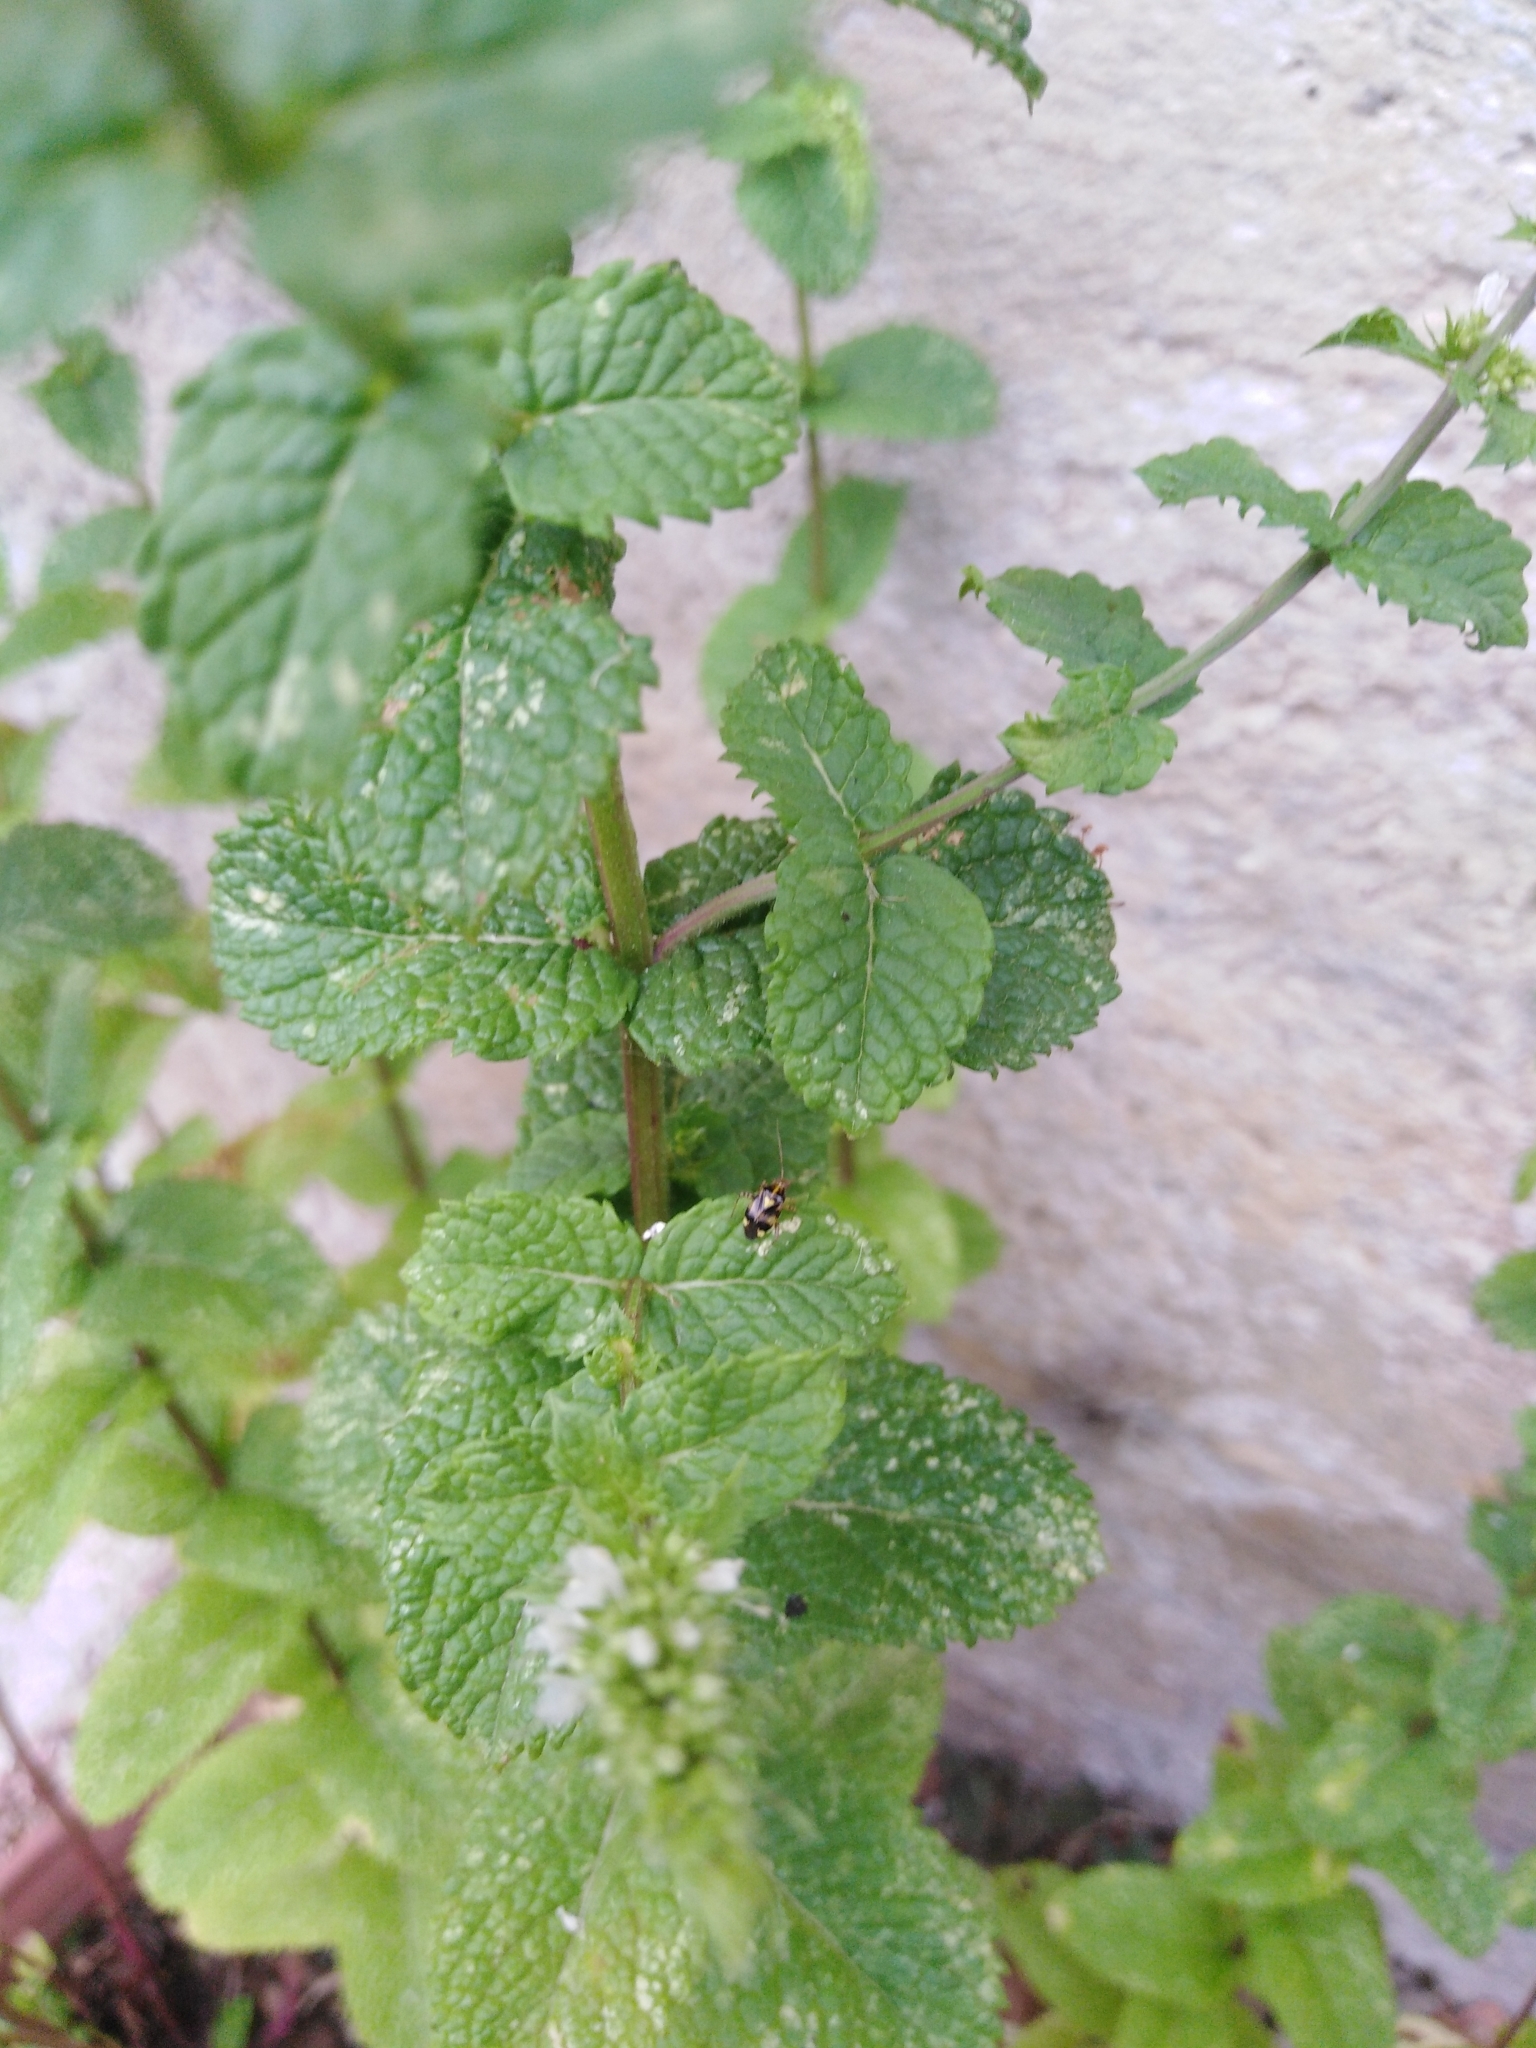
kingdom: Animalia
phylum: Arthropoda
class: Insecta
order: Hemiptera
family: Miridae
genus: Liocoris
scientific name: Liocoris tripustulatus
